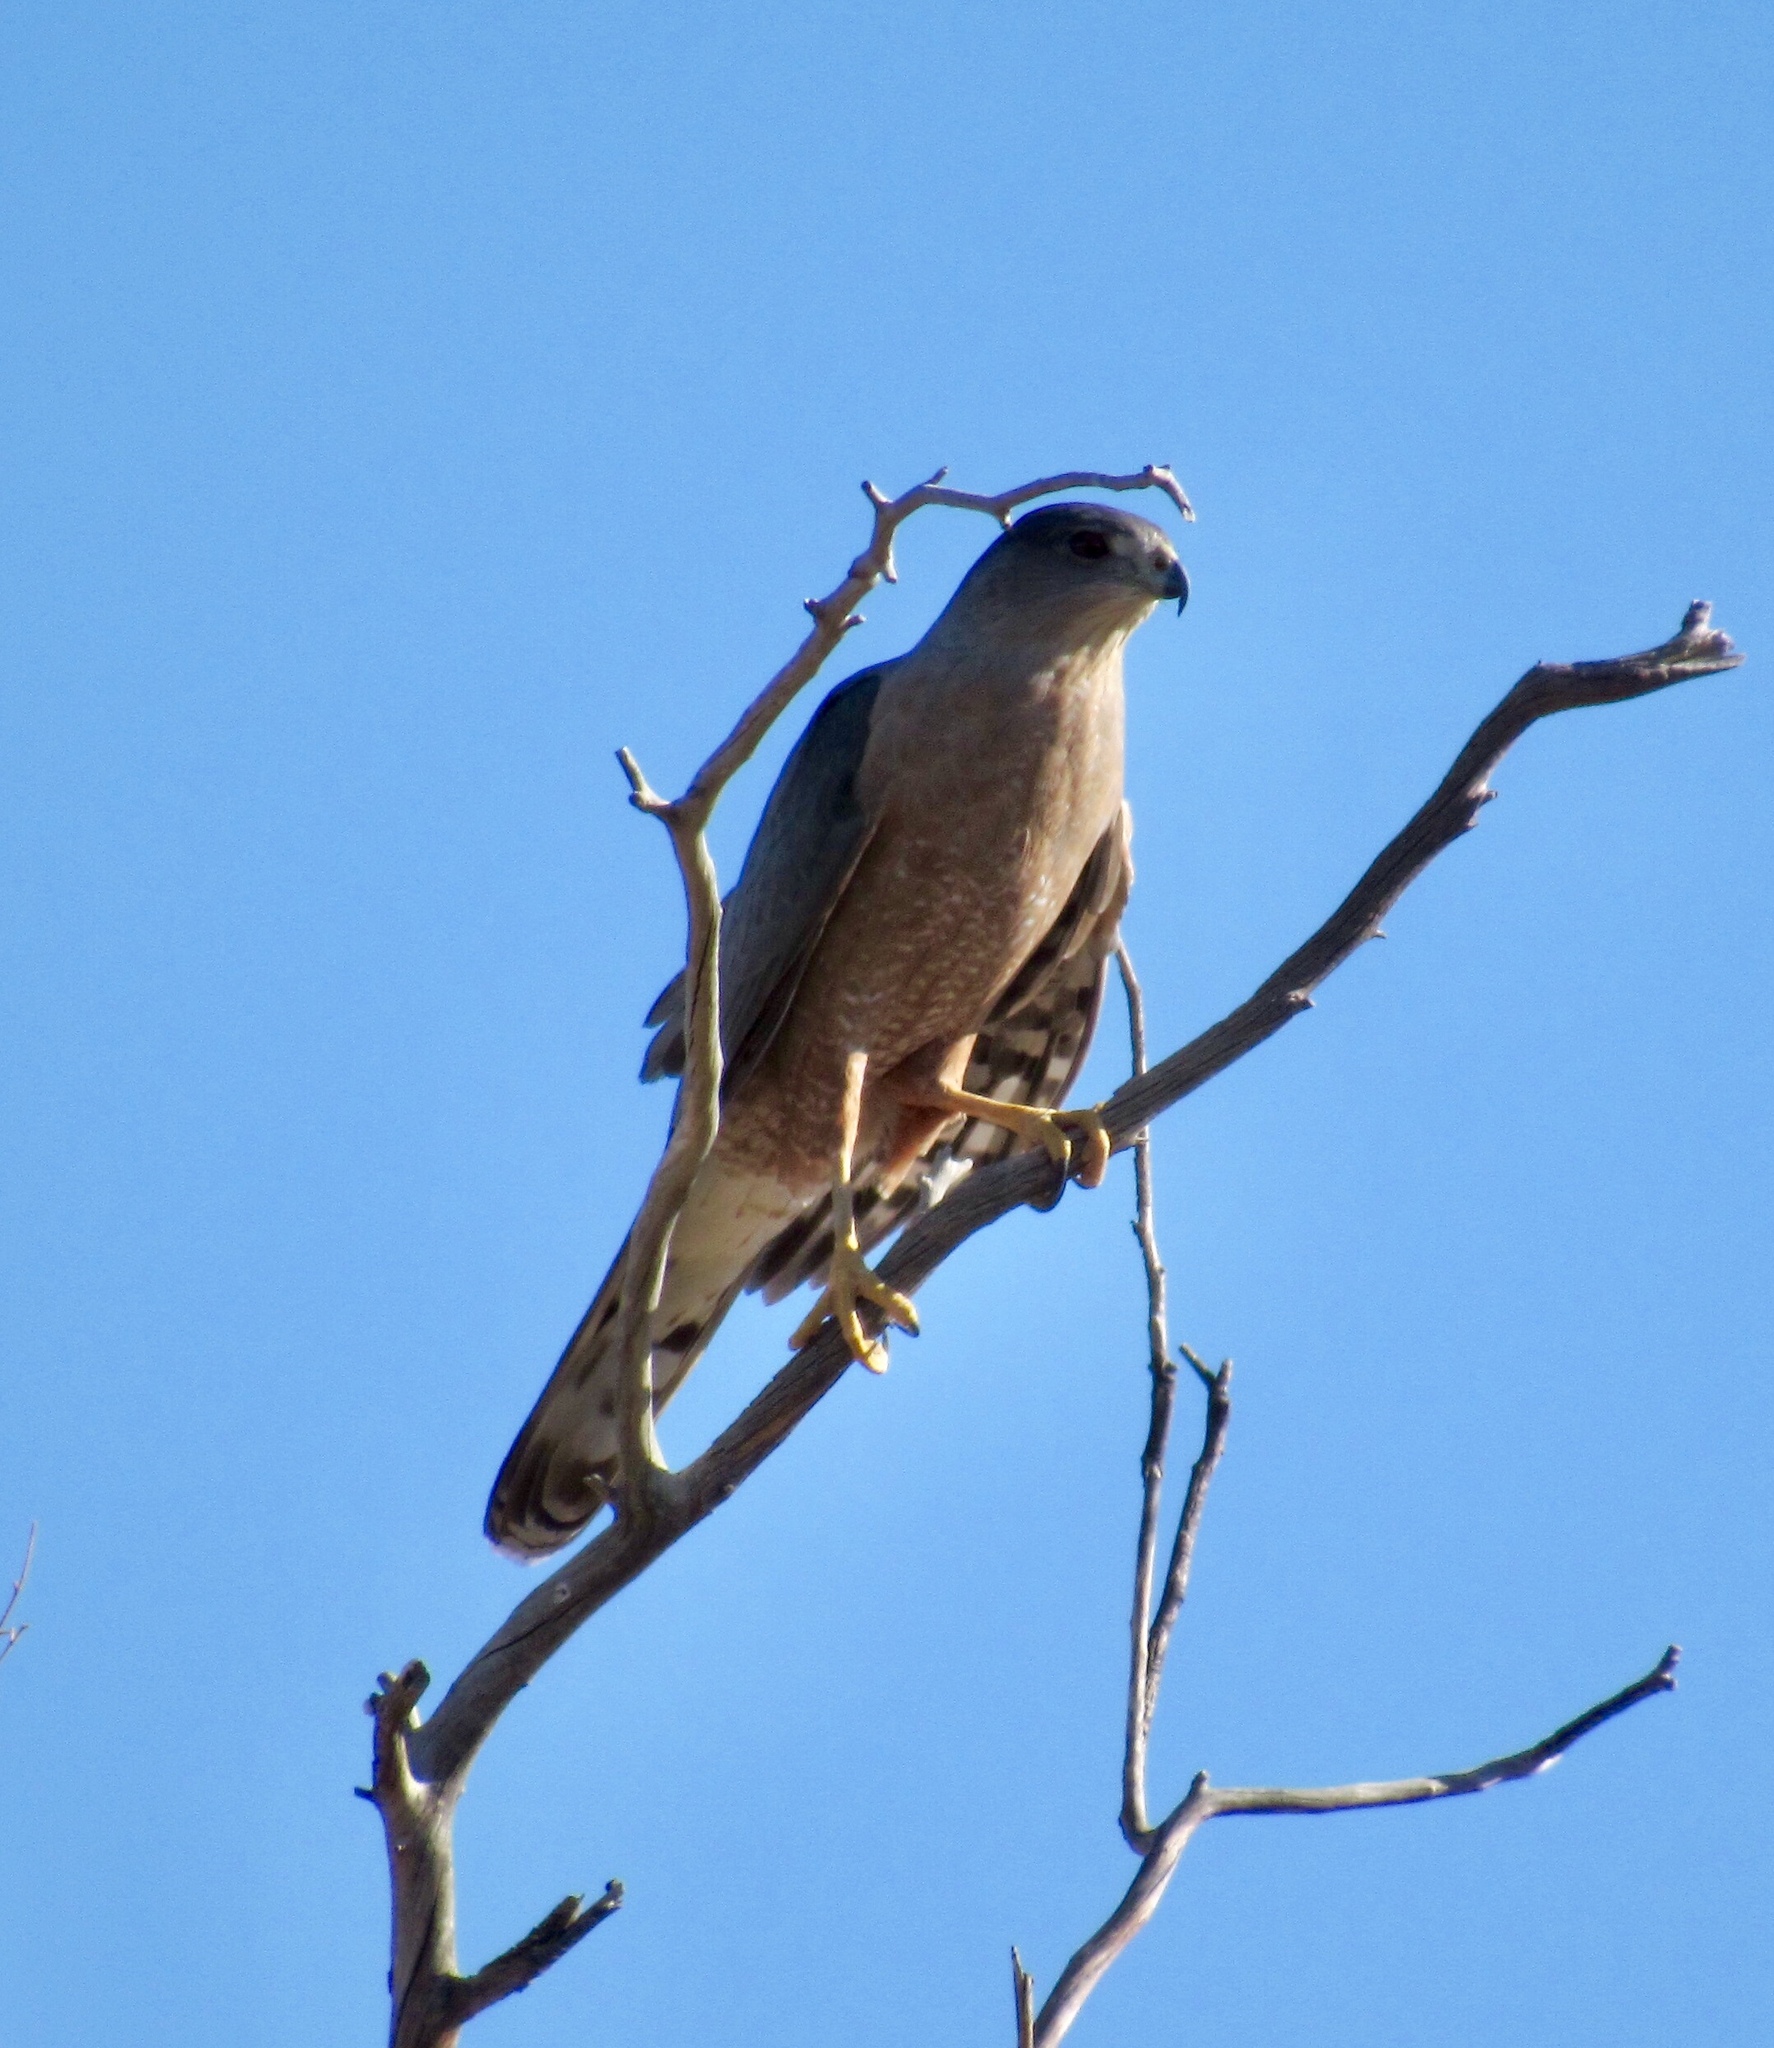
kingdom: Animalia
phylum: Chordata
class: Aves
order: Accipitriformes
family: Accipitridae
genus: Accipiter
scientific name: Accipiter cooperii
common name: Cooper's hawk
